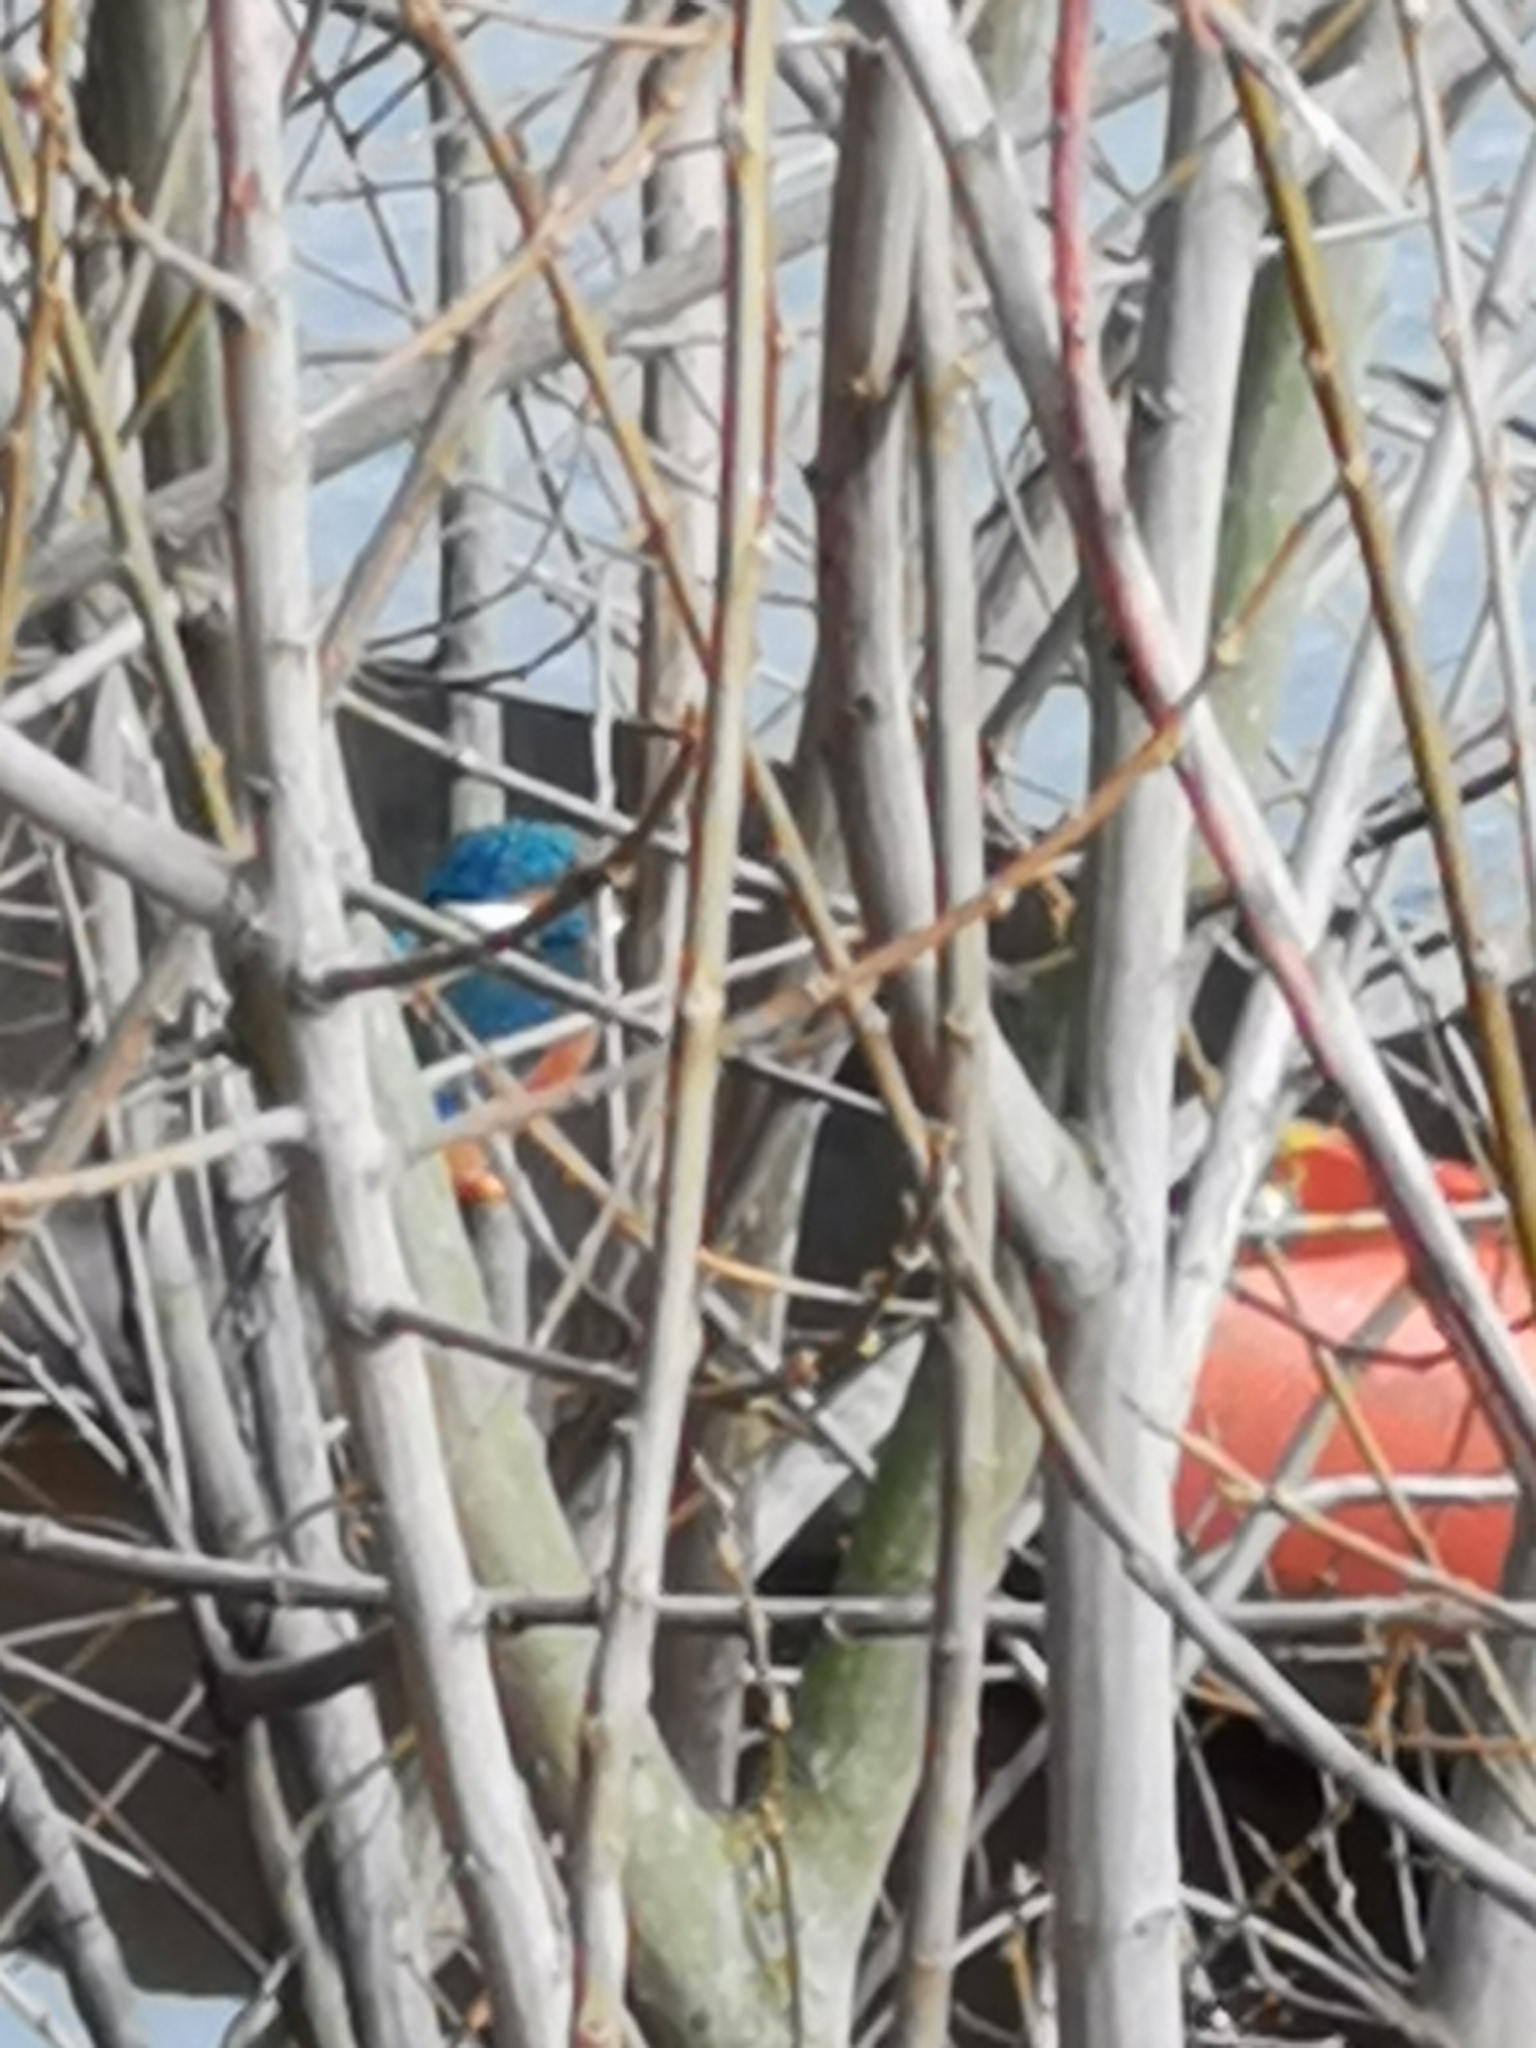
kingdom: Animalia
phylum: Chordata
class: Aves
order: Coraciiformes
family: Alcedinidae
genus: Alcedo
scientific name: Alcedo atthis
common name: Common kingfisher
